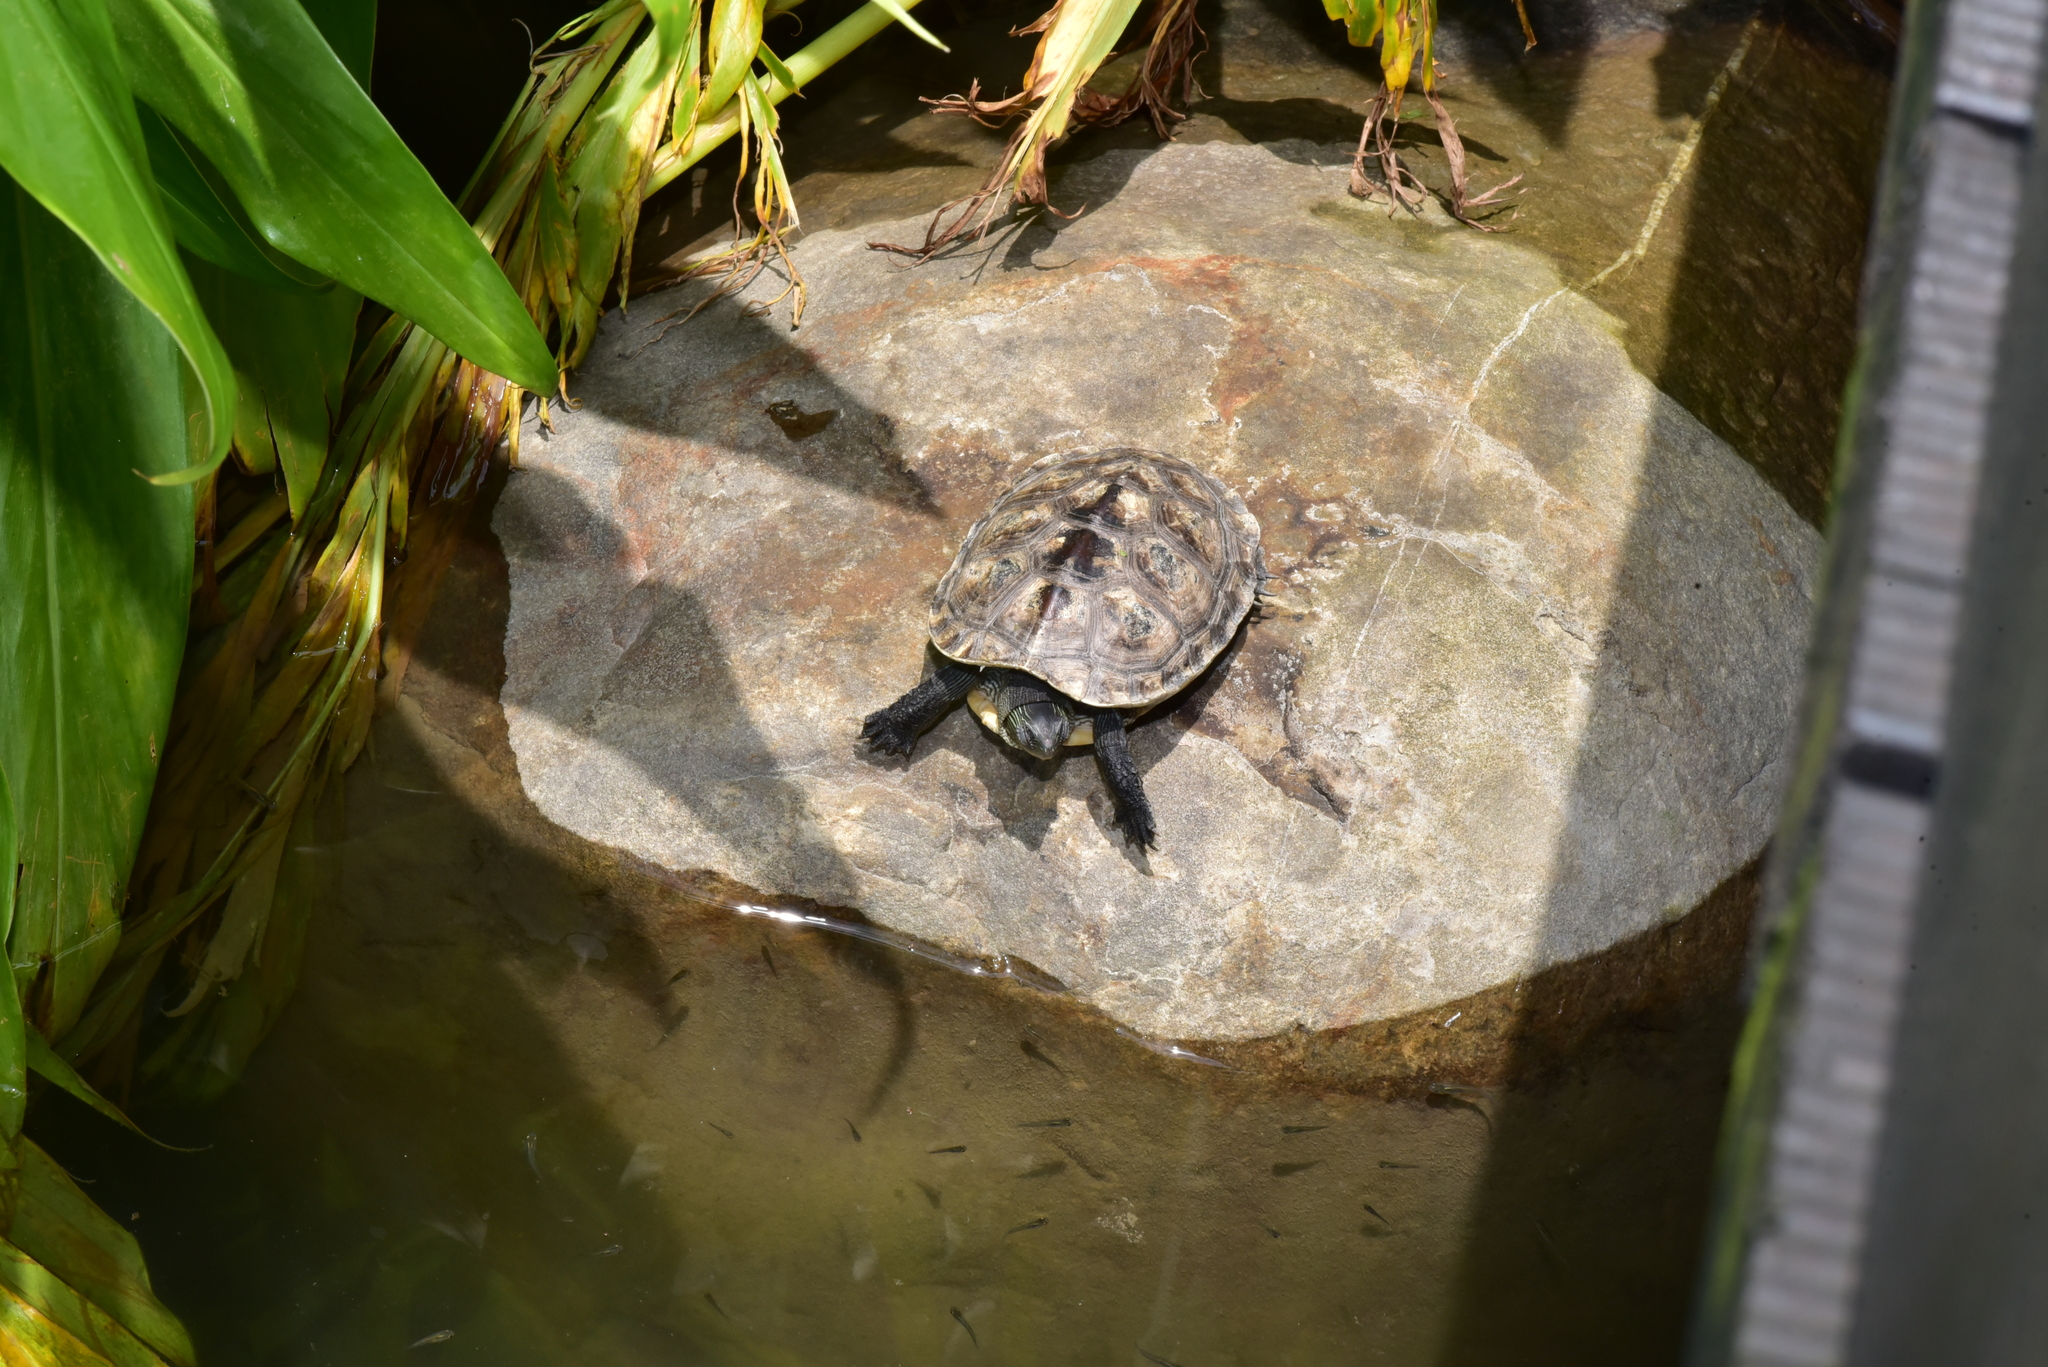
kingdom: Animalia
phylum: Chordata
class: Testudines
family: Geoemydidae
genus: Mauremys
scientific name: Mauremys sinensis
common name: Chinese stripe-necked turtle
